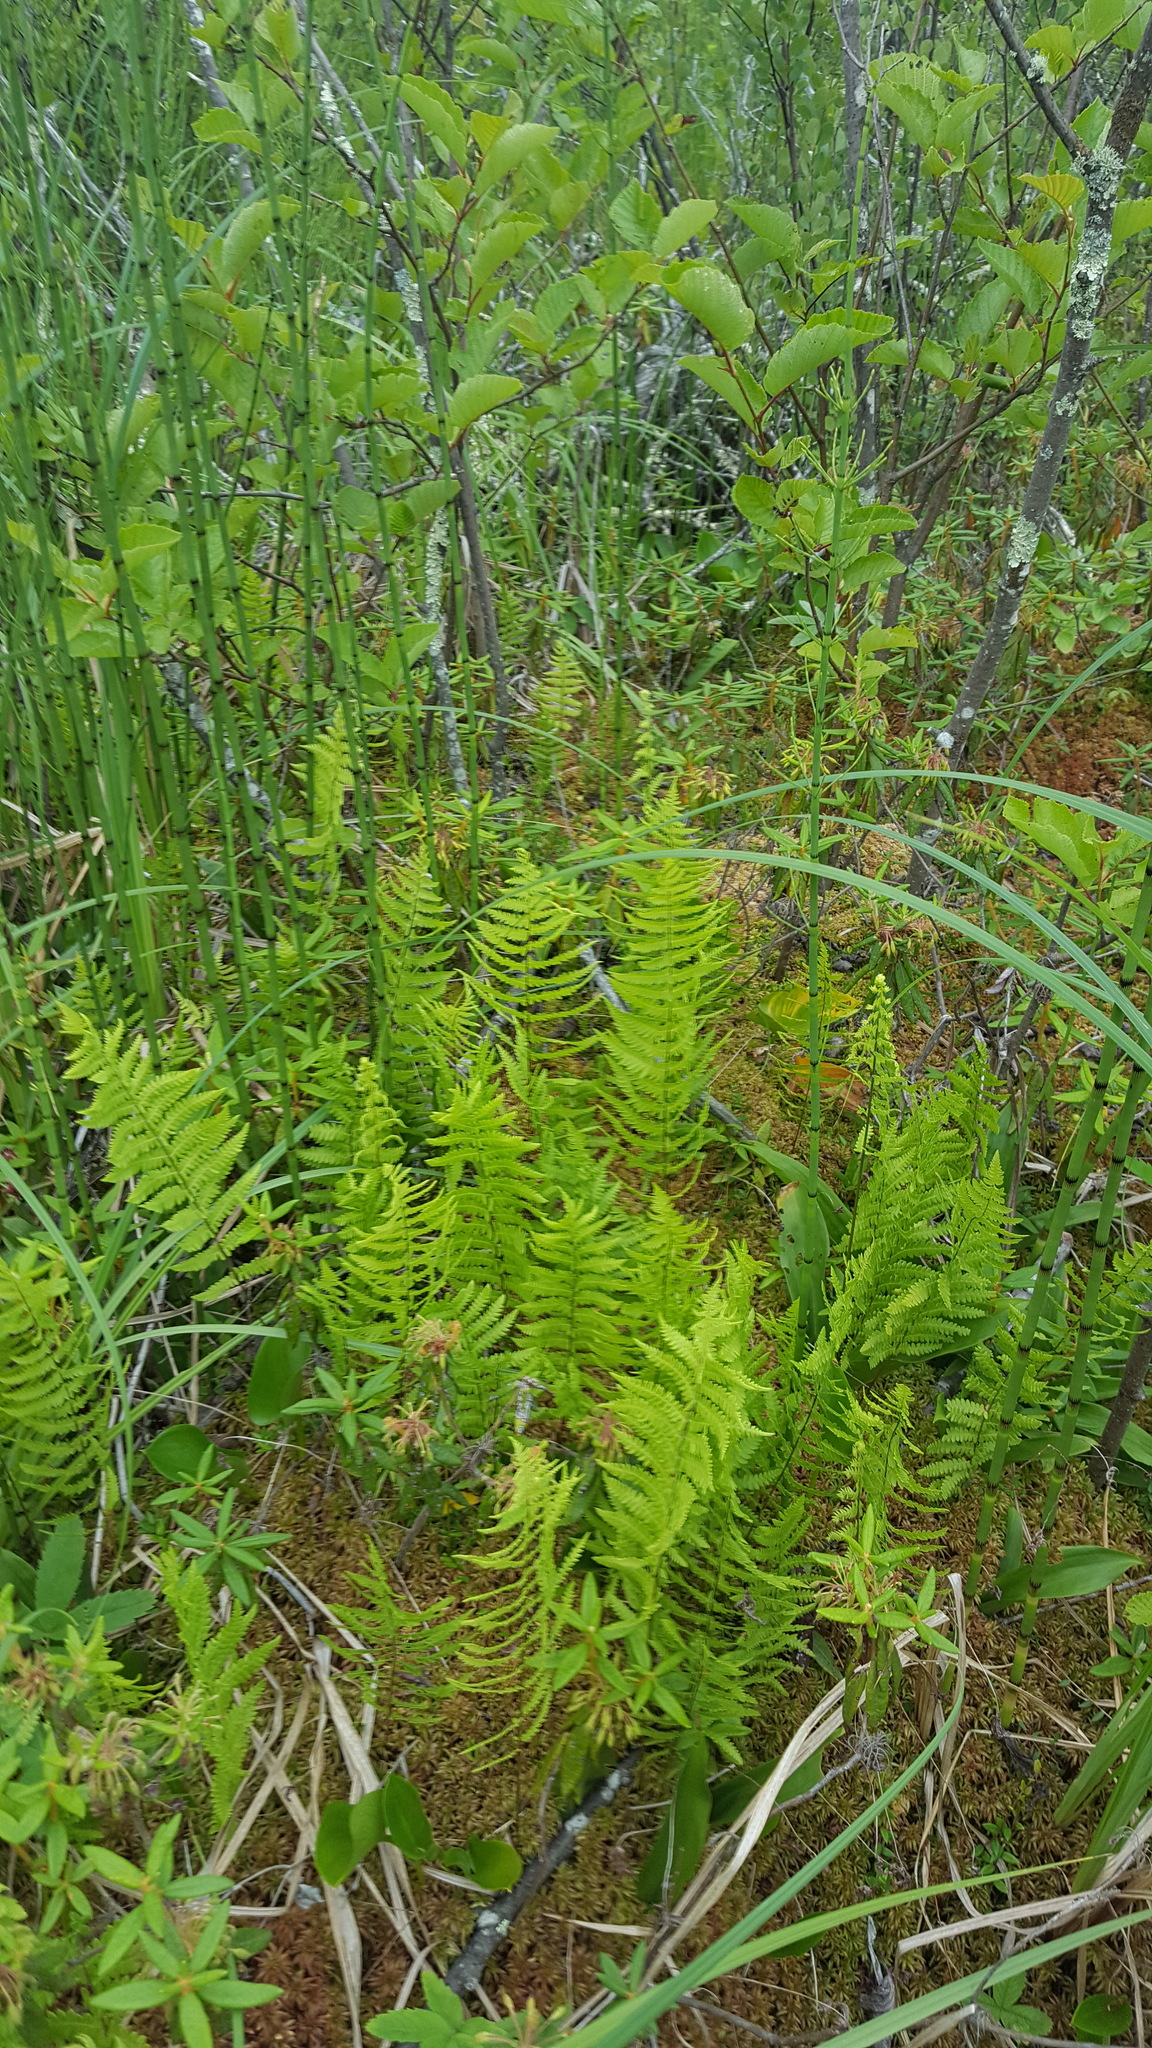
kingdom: Plantae
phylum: Tracheophyta
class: Polypodiopsida
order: Polypodiales
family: Thelypteridaceae
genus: Thelypteris
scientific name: Thelypteris palustris
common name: Marsh fern
